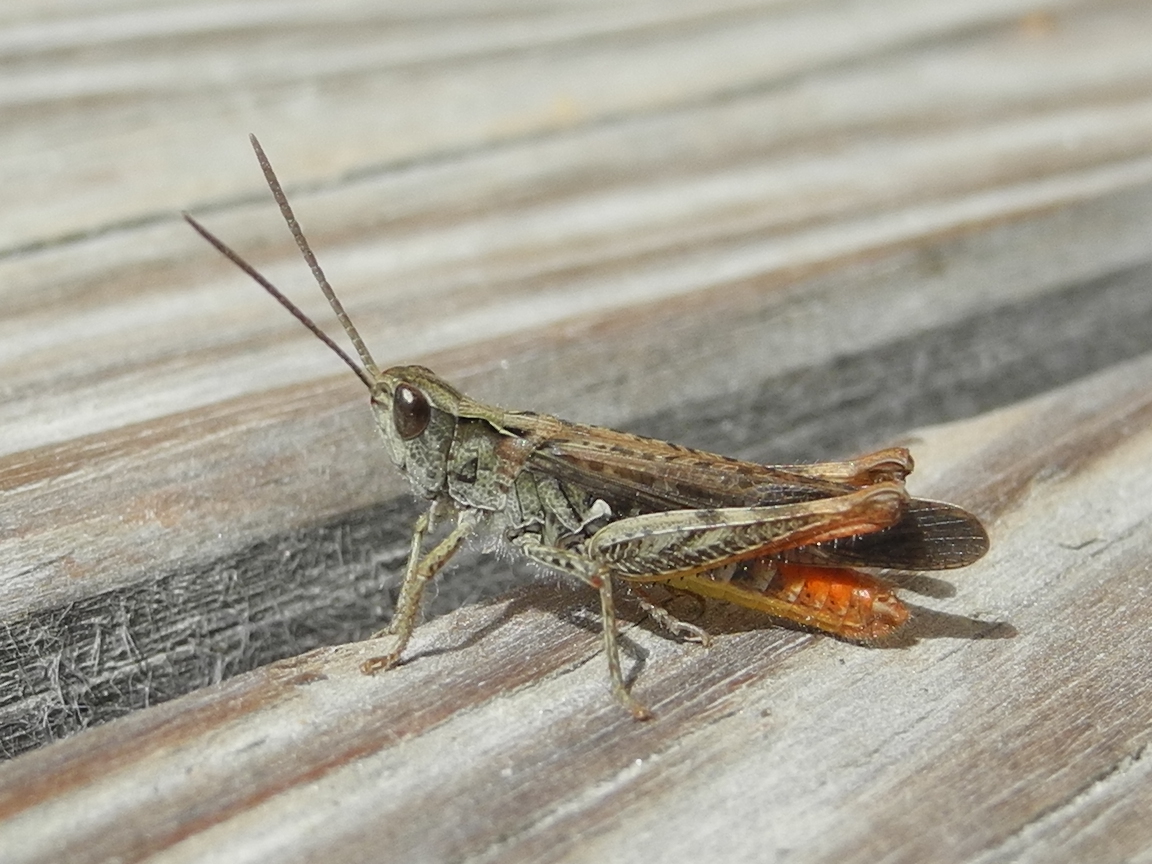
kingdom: Animalia
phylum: Arthropoda
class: Insecta
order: Orthoptera
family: Acrididae
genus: Chorthippus
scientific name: Chorthippus brunneus
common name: Field grasshopper
